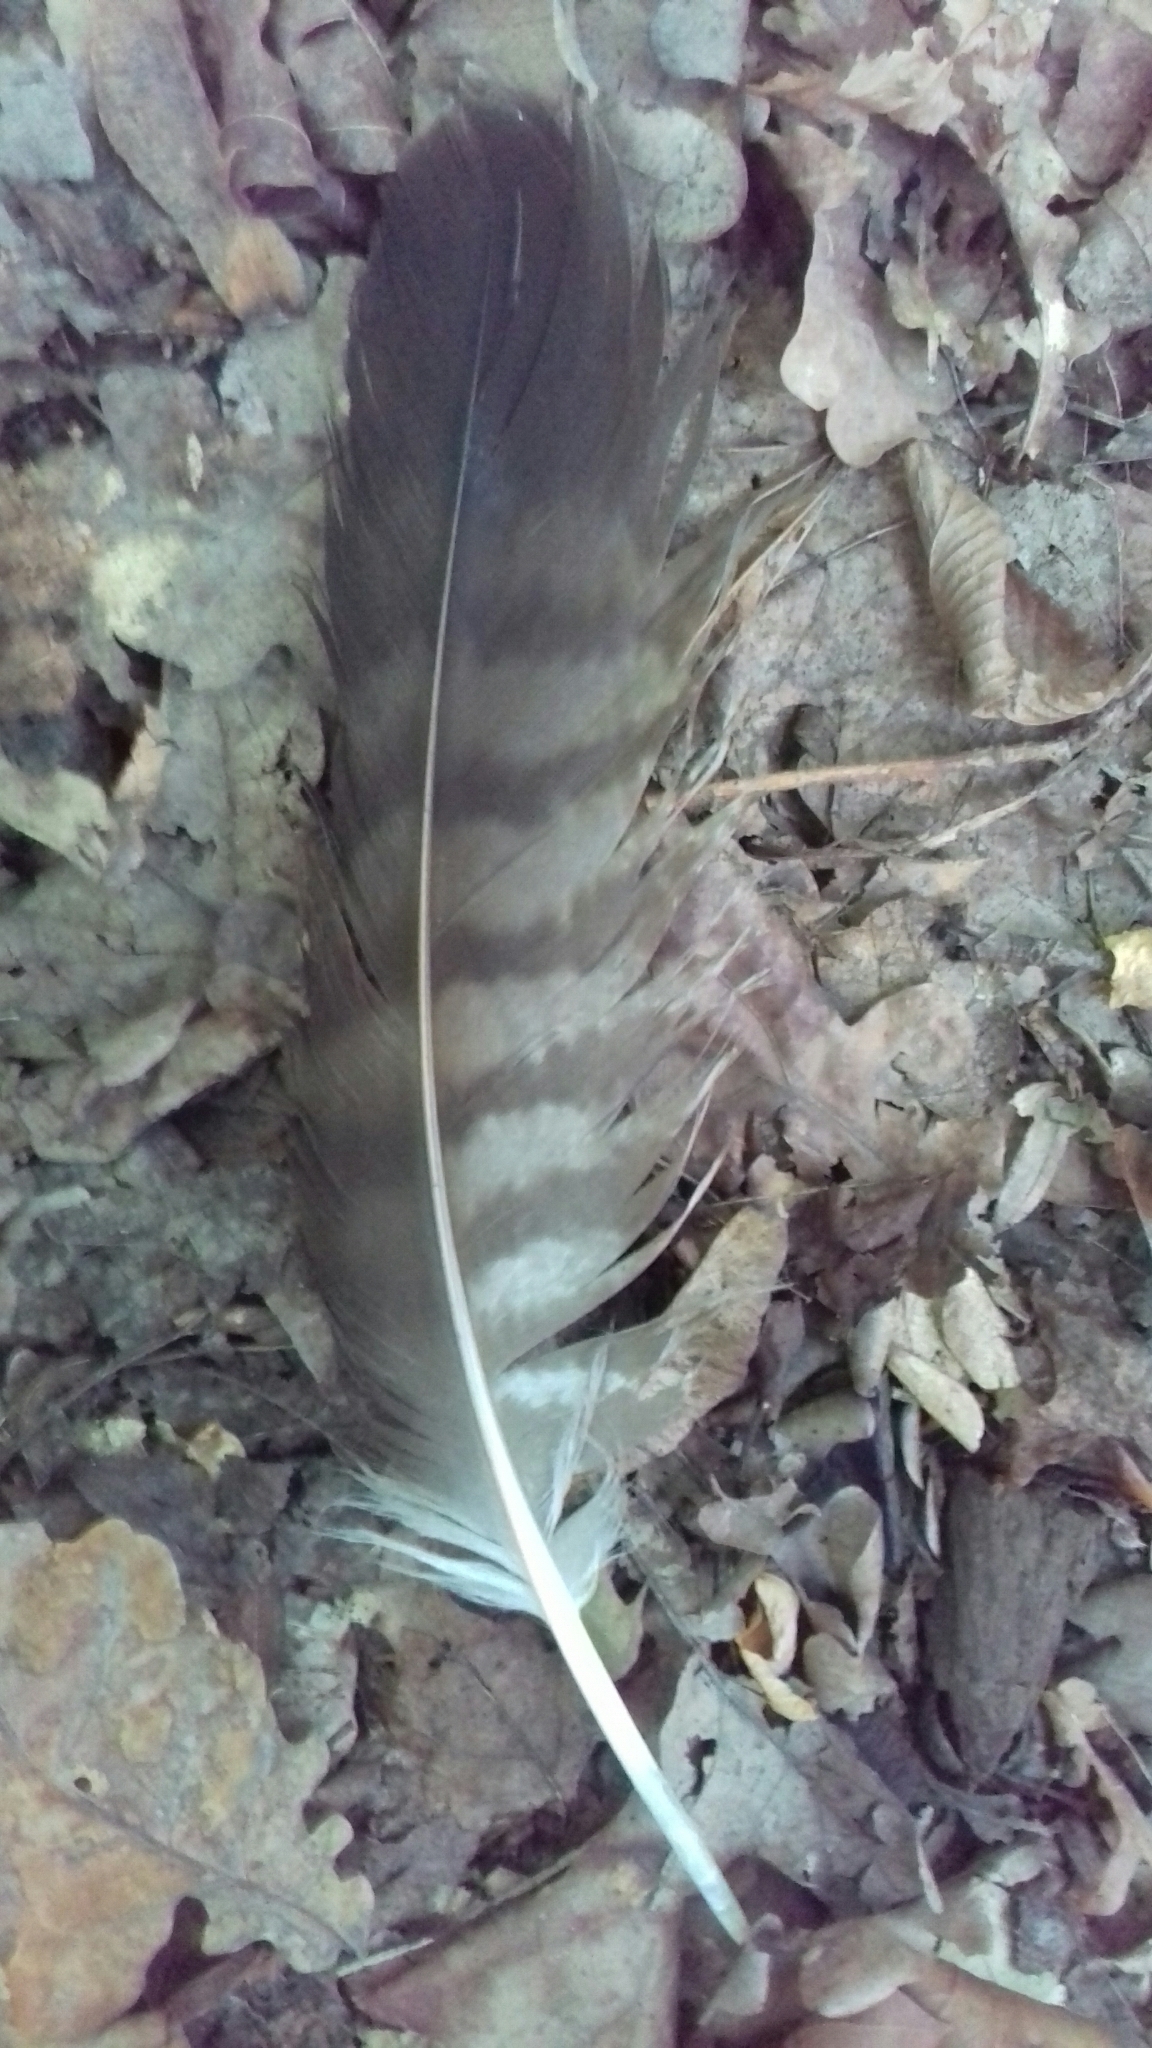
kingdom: Animalia
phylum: Chordata
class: Aves
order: Accipitriformes
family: Accipitridae
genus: Buteo
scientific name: Buteo buteo
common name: Common buzzard
